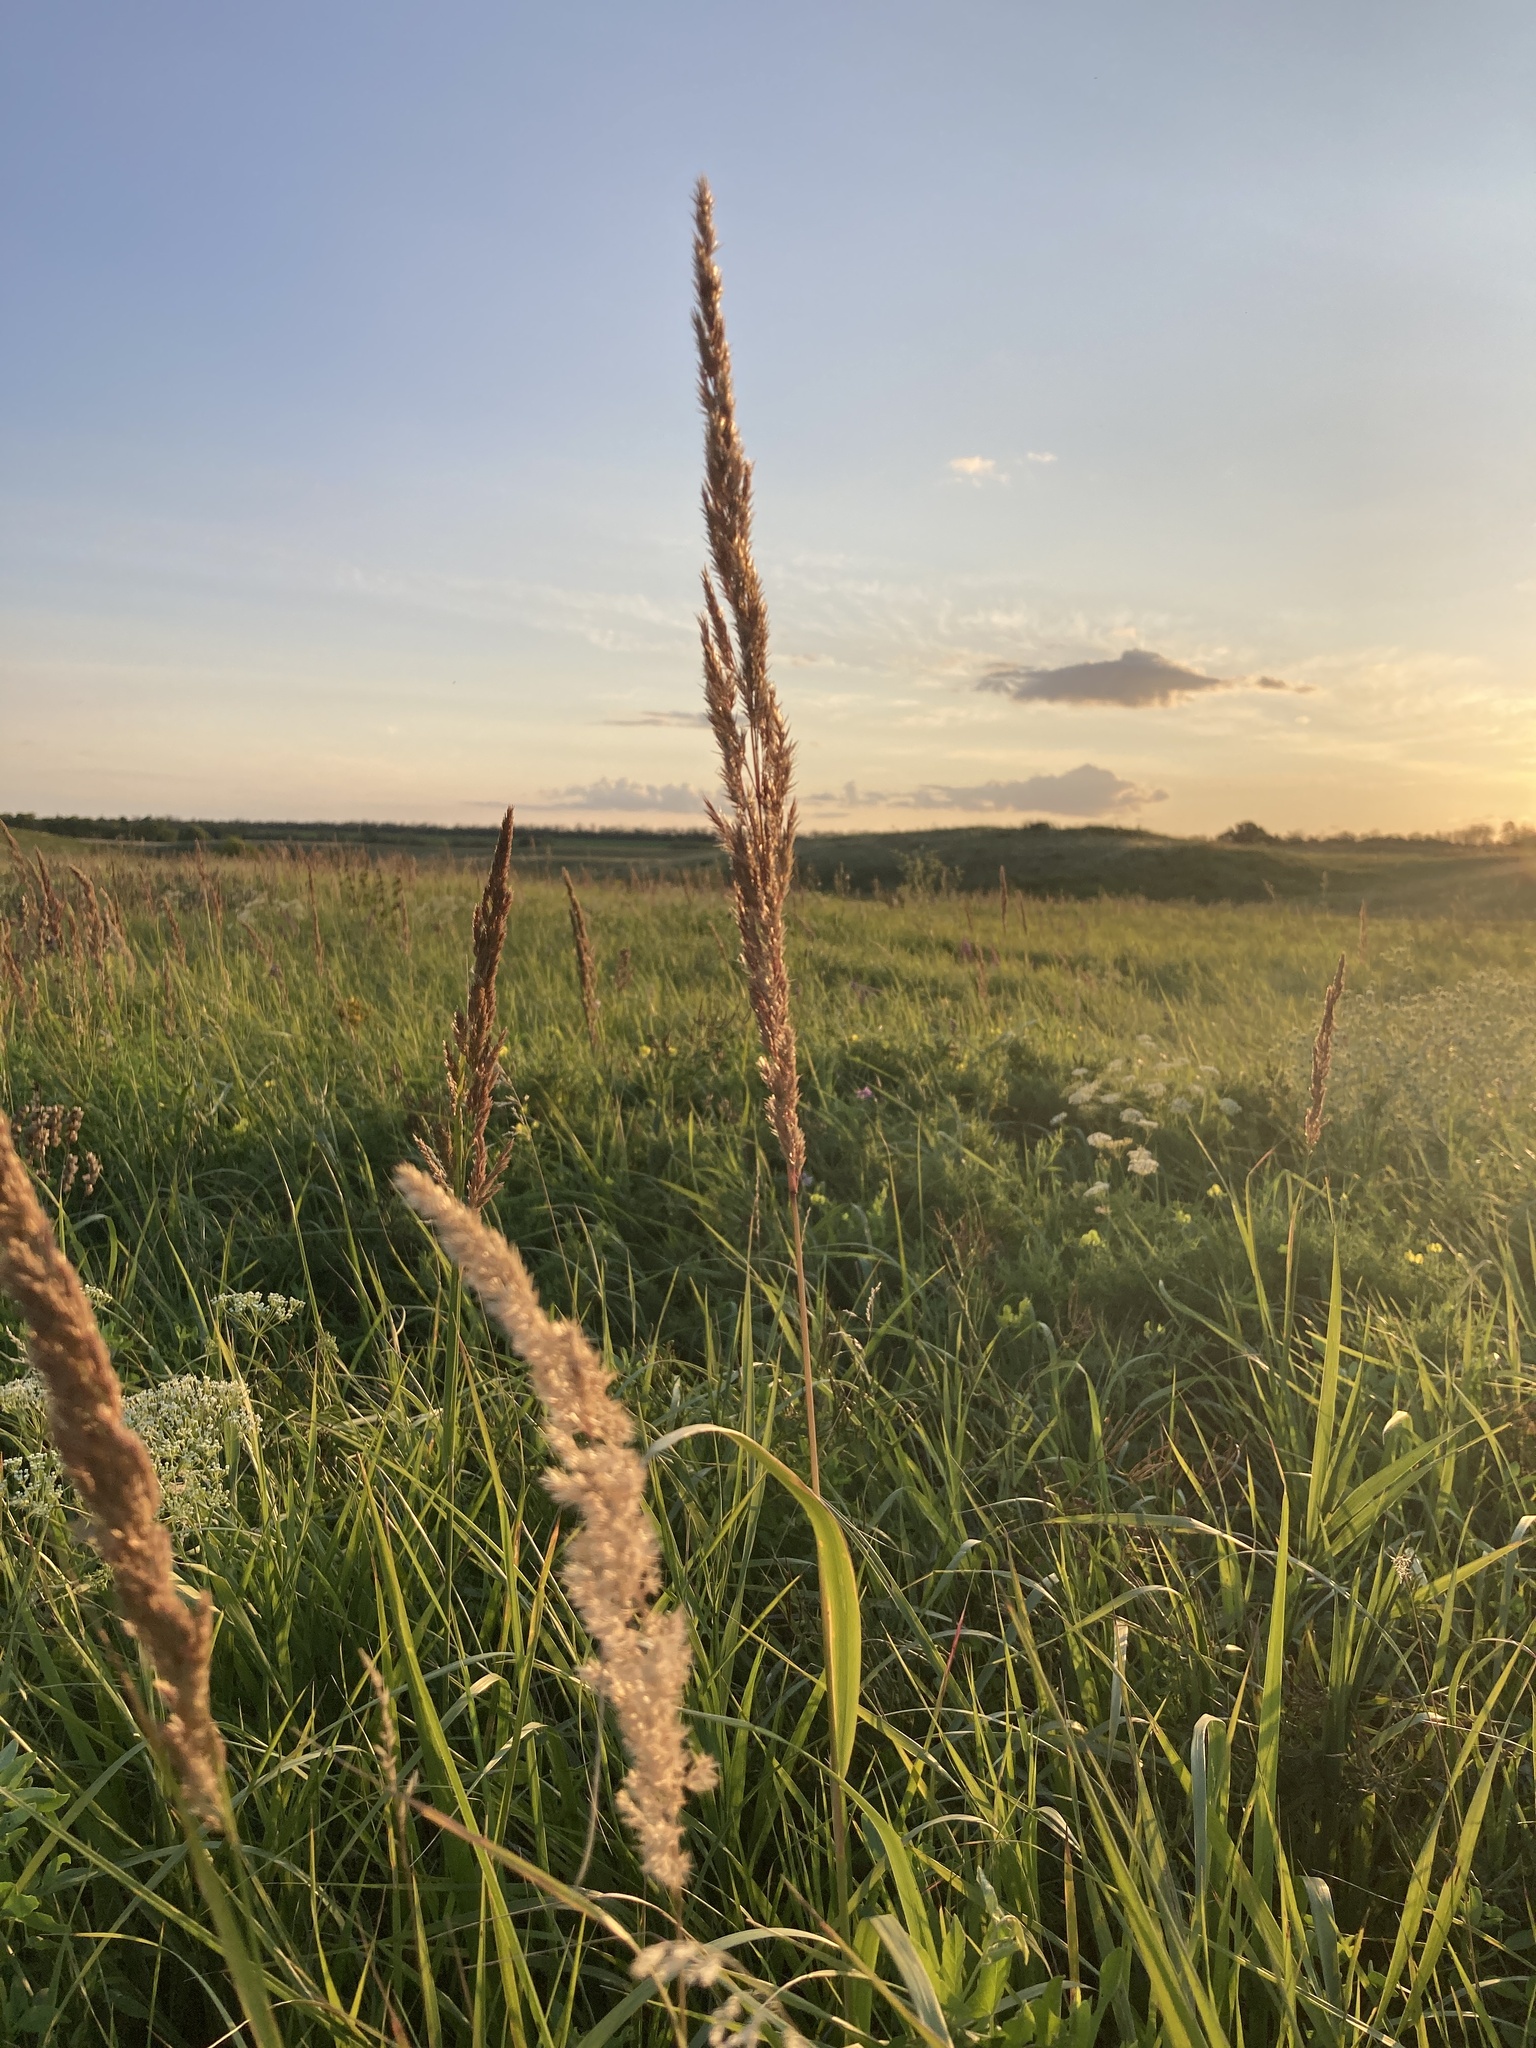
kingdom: Plantae
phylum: Tracheophyta
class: Liliopsida
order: Poales
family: Poaceae
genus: Calamagrostis
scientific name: Calamagrostis epigejos
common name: Wood small-reed
